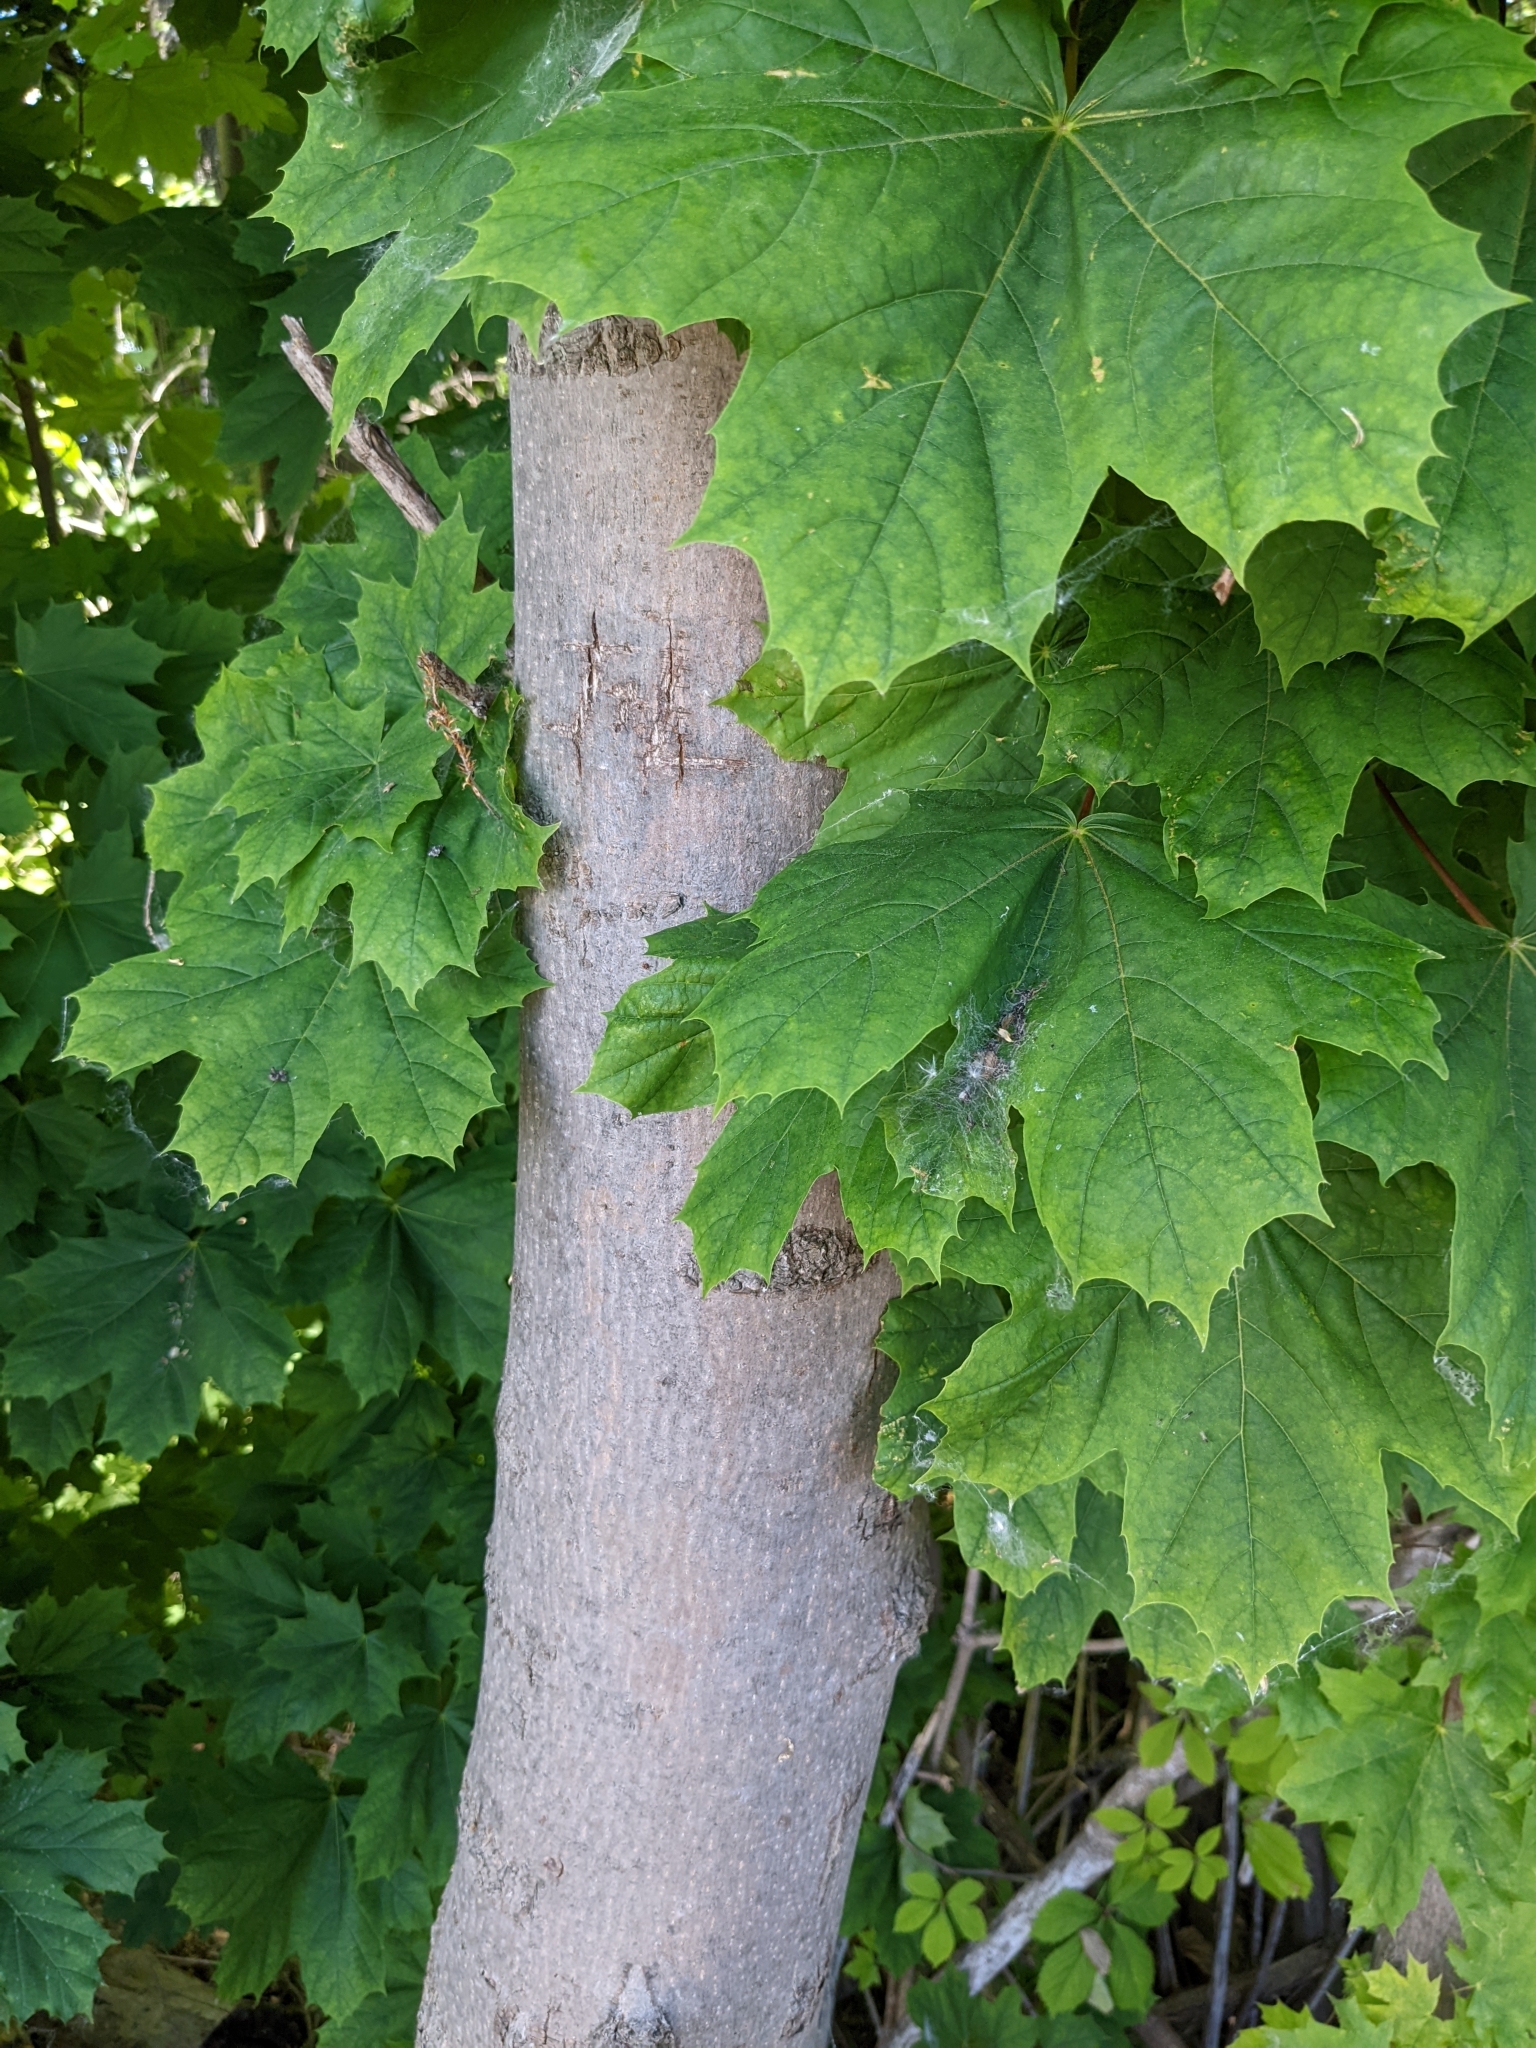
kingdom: Plantae
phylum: Tracheophyta
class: Magnoliopsida
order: Sapindales
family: Sapindaceae
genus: Acer
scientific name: Acer platanoides
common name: Norway maple
